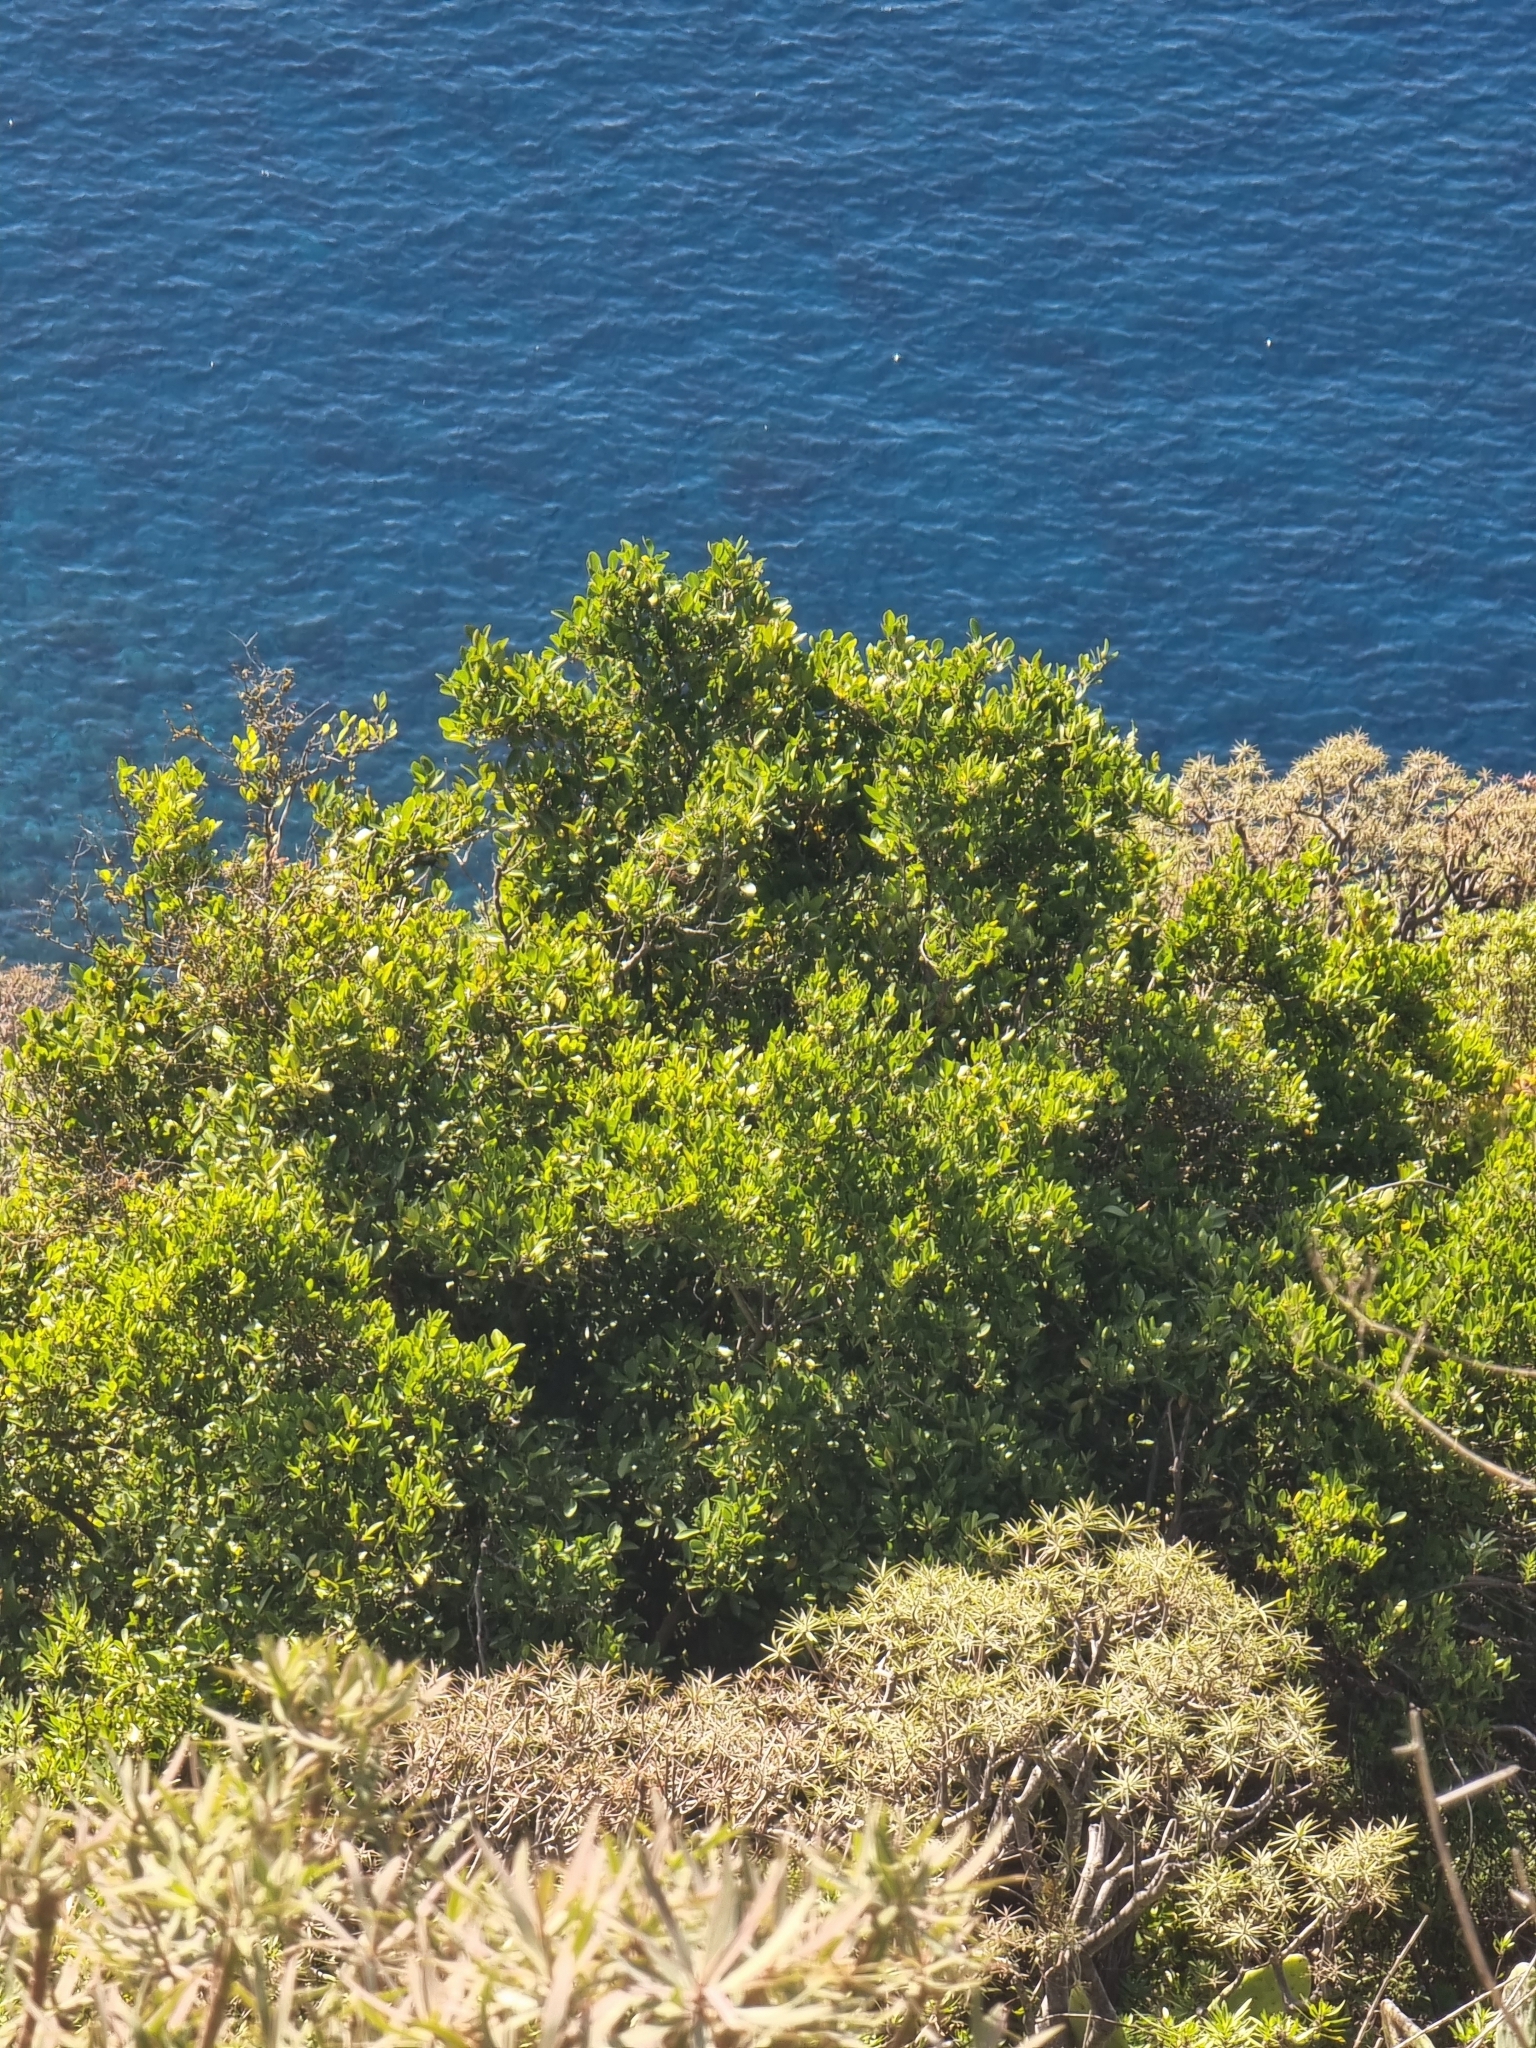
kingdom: Plantae
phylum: Tracheophyta
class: Magnoliopsida
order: Celastrales
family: Celastraceae
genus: Gymnosporia
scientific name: Gymnosporia dryandri
